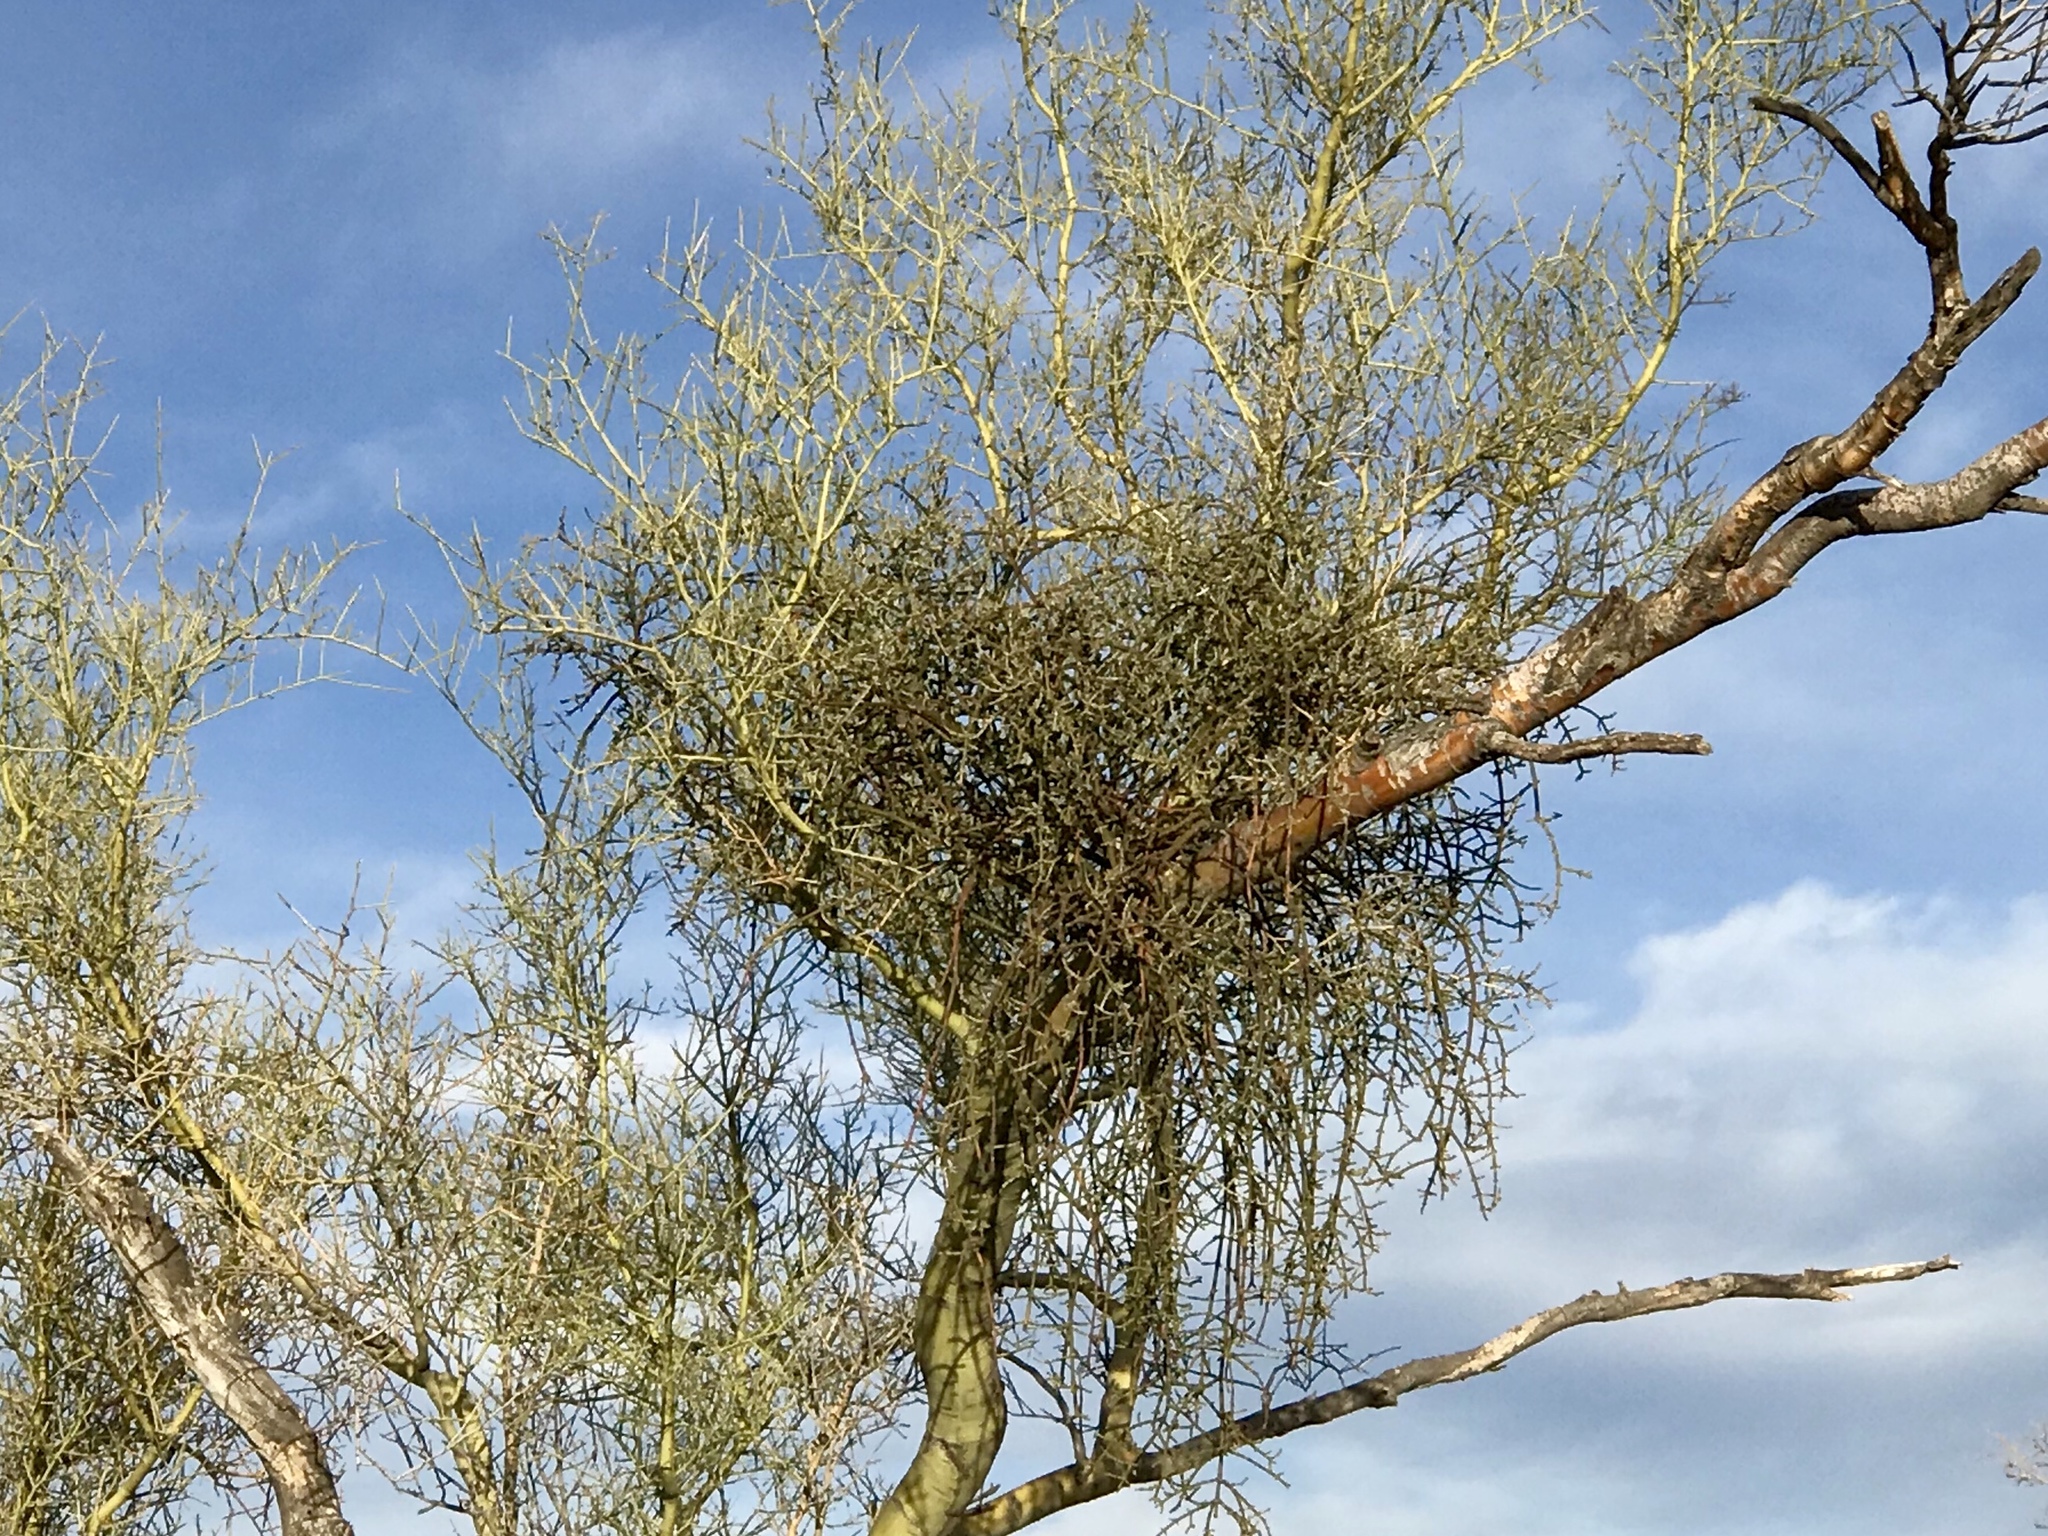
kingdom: Plantae
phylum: Tracheophyta
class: Magnoliopsida
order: Santalales
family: Viscaceae
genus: Phoradendron
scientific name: Phoradendron californicum
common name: Acacia mistletoe
